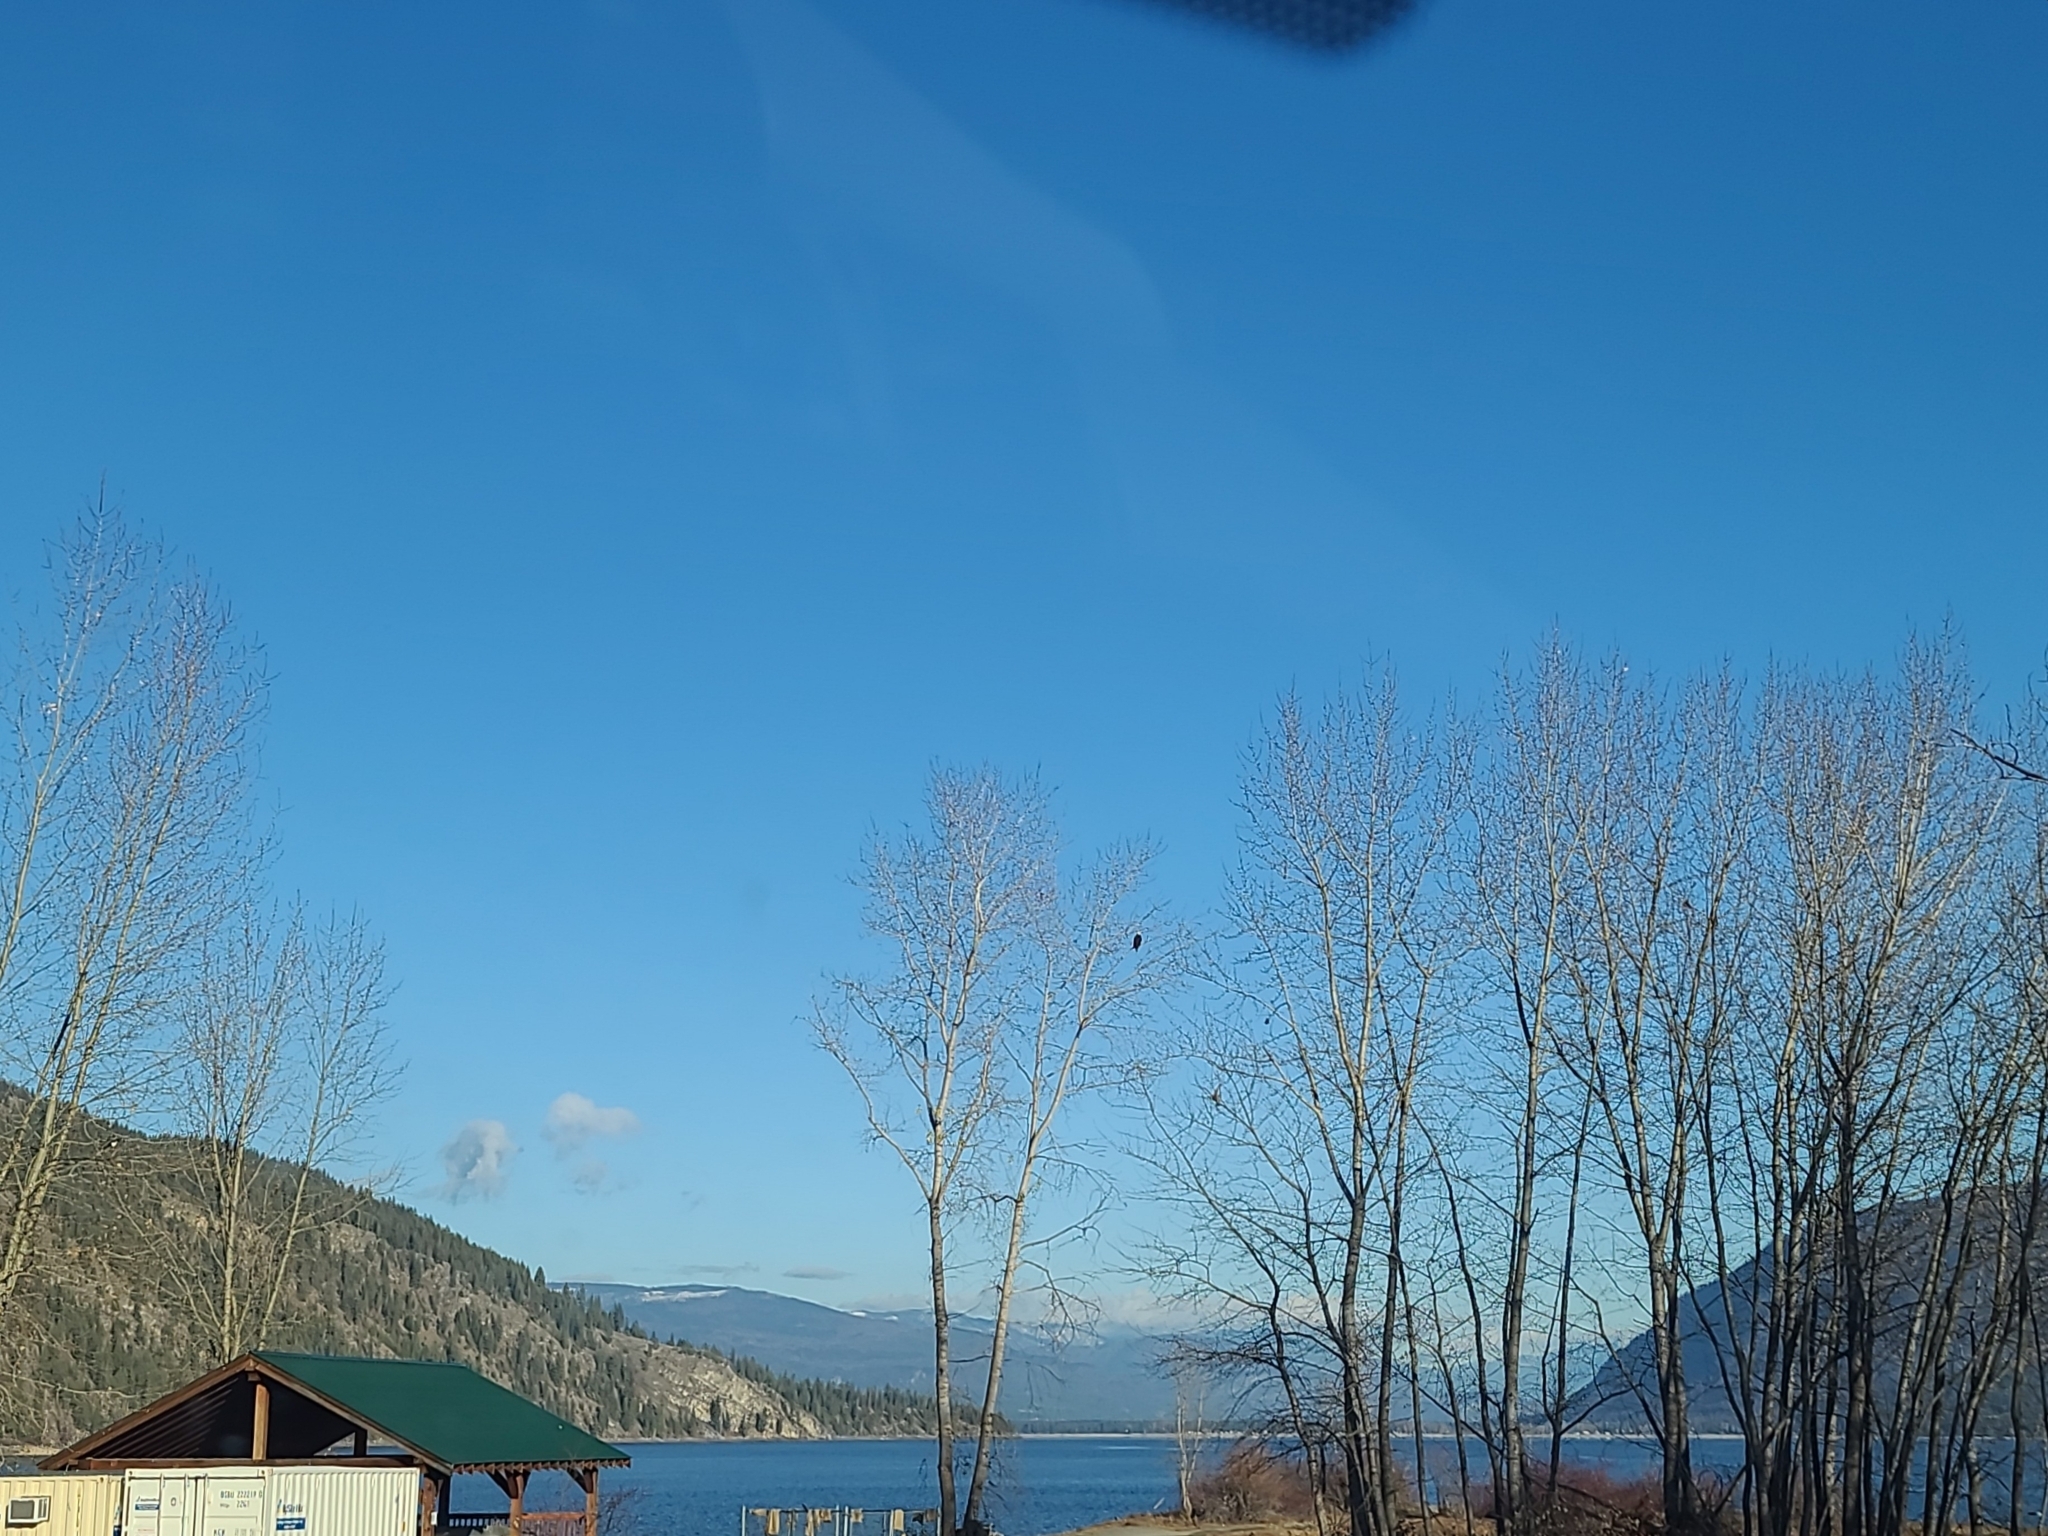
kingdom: Animalia
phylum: Chordata
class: Aves
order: Accipitriformes
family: Accipitridae
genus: Haliaeetus
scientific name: Haliaeetus leucocephalus
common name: Bald eagle
